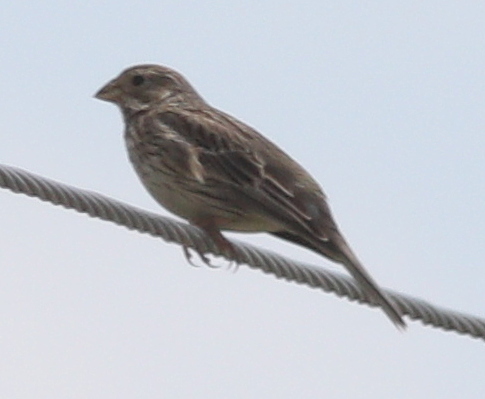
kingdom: Animalia
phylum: Chordata
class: Aves
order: Passeriformes
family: Emberizidae
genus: Emberiza
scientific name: Emberiza calandra
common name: Corn bunting
